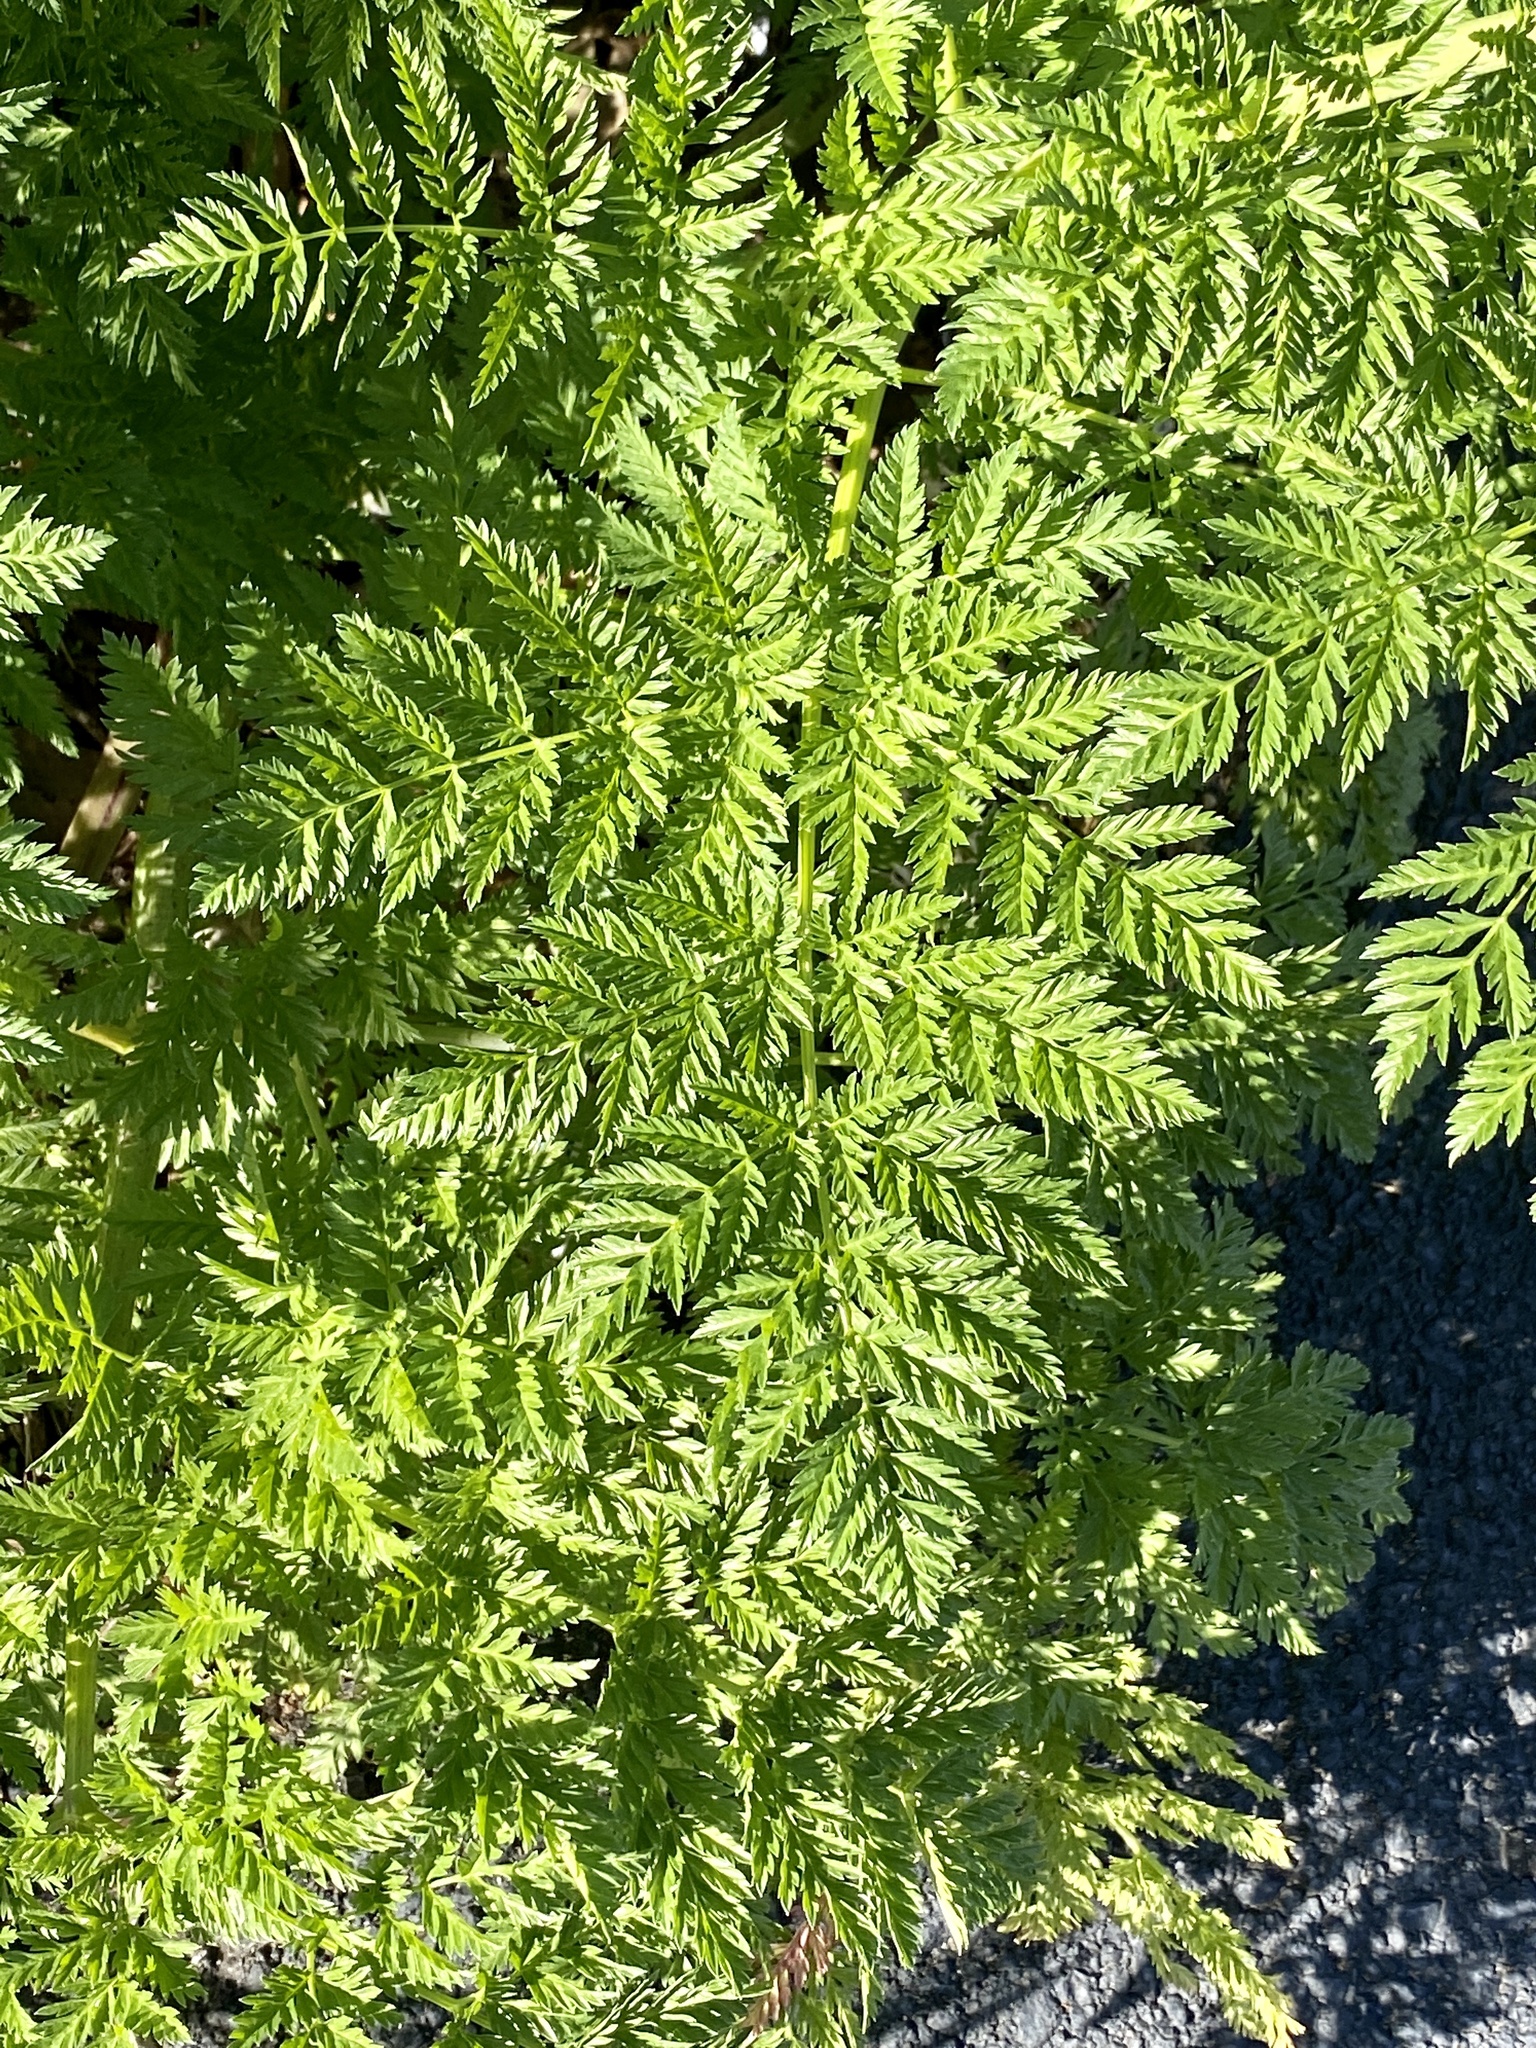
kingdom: Plantae
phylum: Tracheophyta
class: Magnoliopsida
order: Apiales
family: Apiaceae
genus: Conium
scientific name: Conium maculatum
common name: Hemlock
